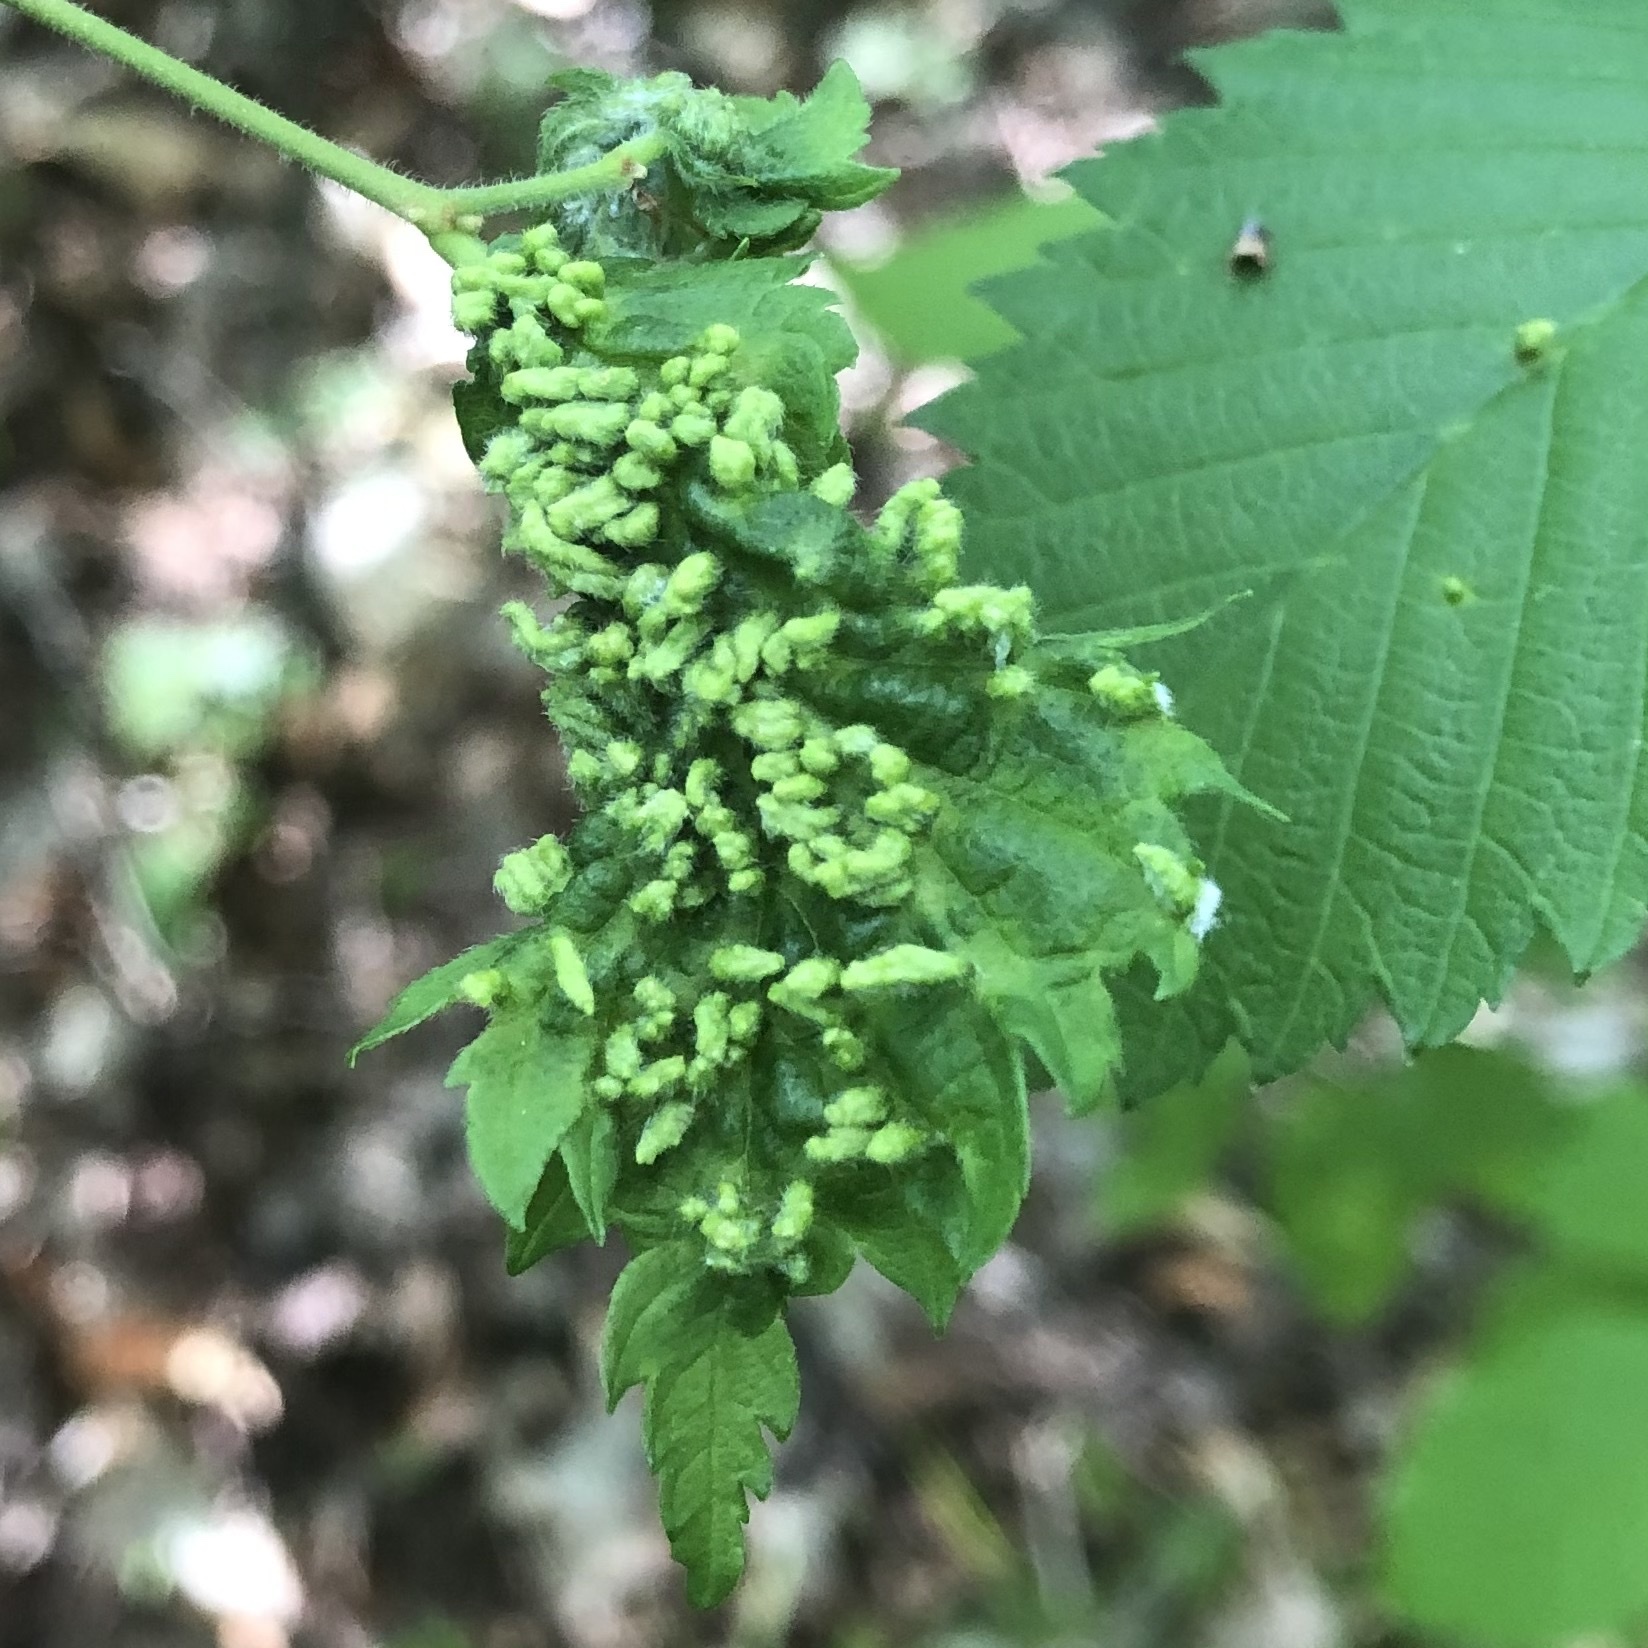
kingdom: Animalia
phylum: Arthropoda
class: Arachnida
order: Trombidiformes
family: Eriophyidae
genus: Aceria
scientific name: Aceria
